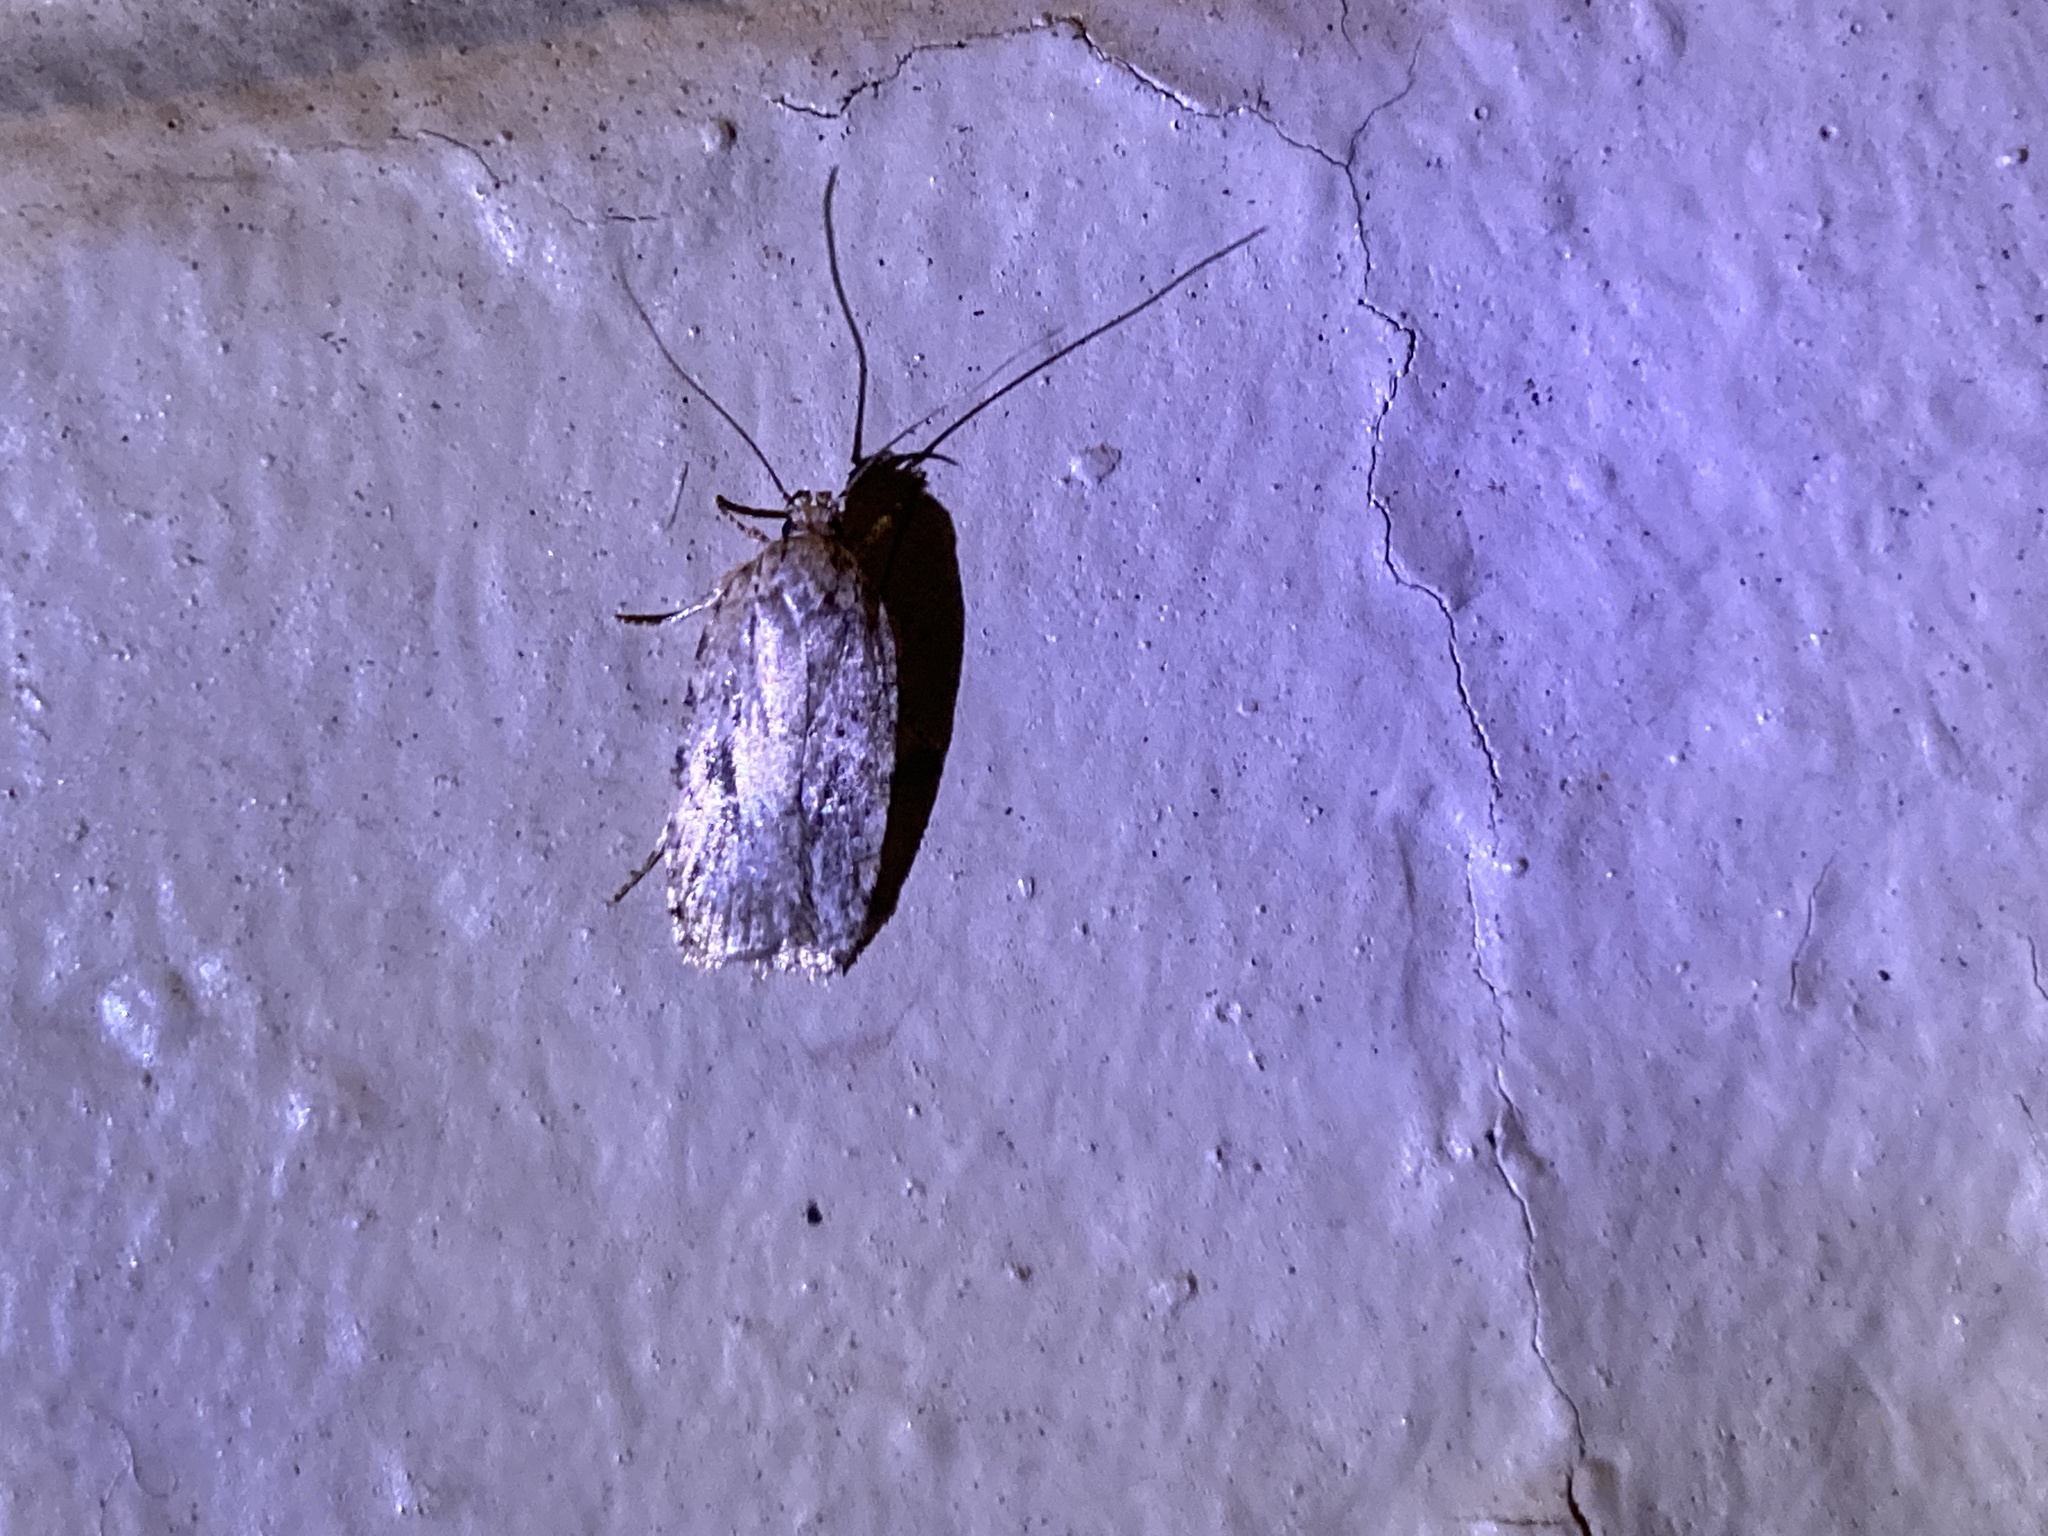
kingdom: Animalia
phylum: Arthropoda
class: Insecta
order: Lepidoptera
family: Depressariidae
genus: Agonopterix
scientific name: Agonopterix pulvipennella
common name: Goldenrod leafffolder
